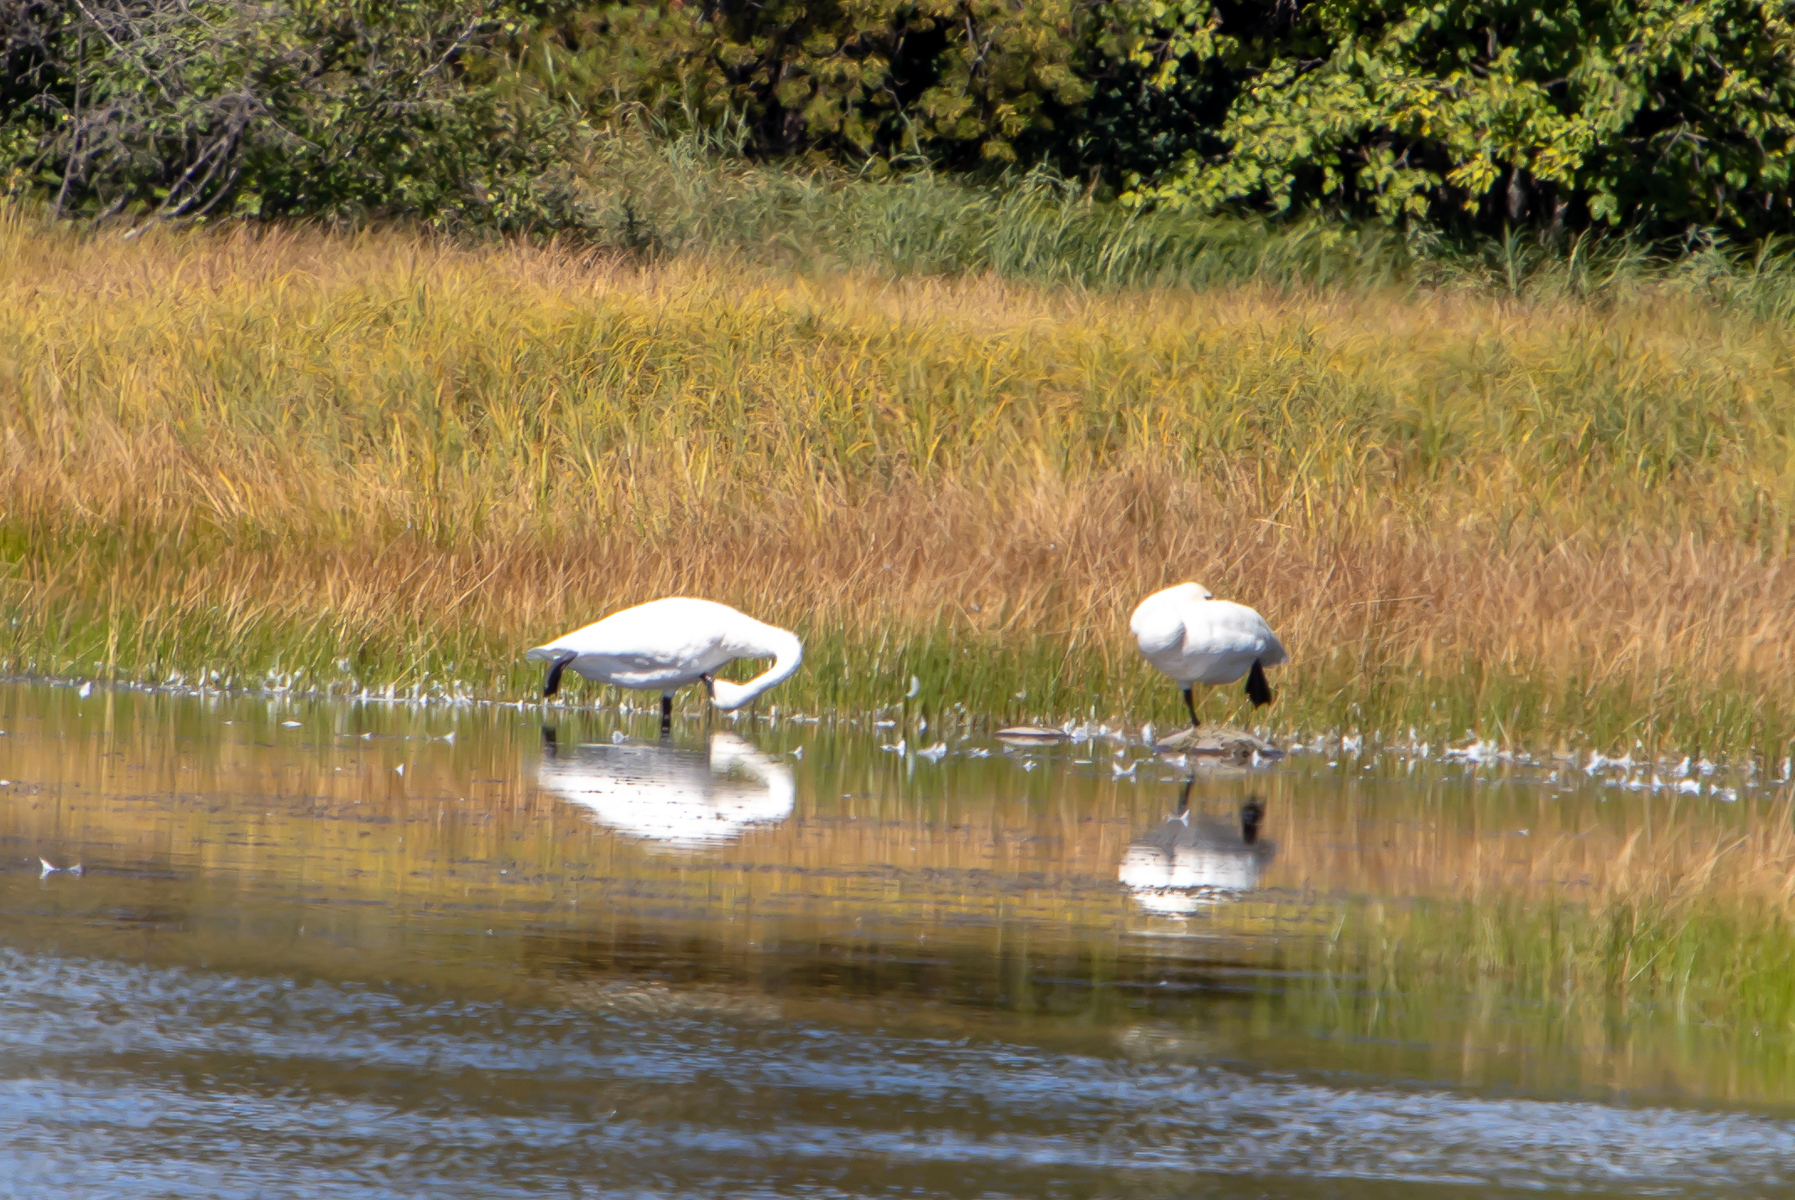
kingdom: Animalia
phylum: Chordata
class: Aves
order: Anseriformes
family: Anatidae
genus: Cygnus
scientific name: Cygnus buccinator
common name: Trumpeter swan
